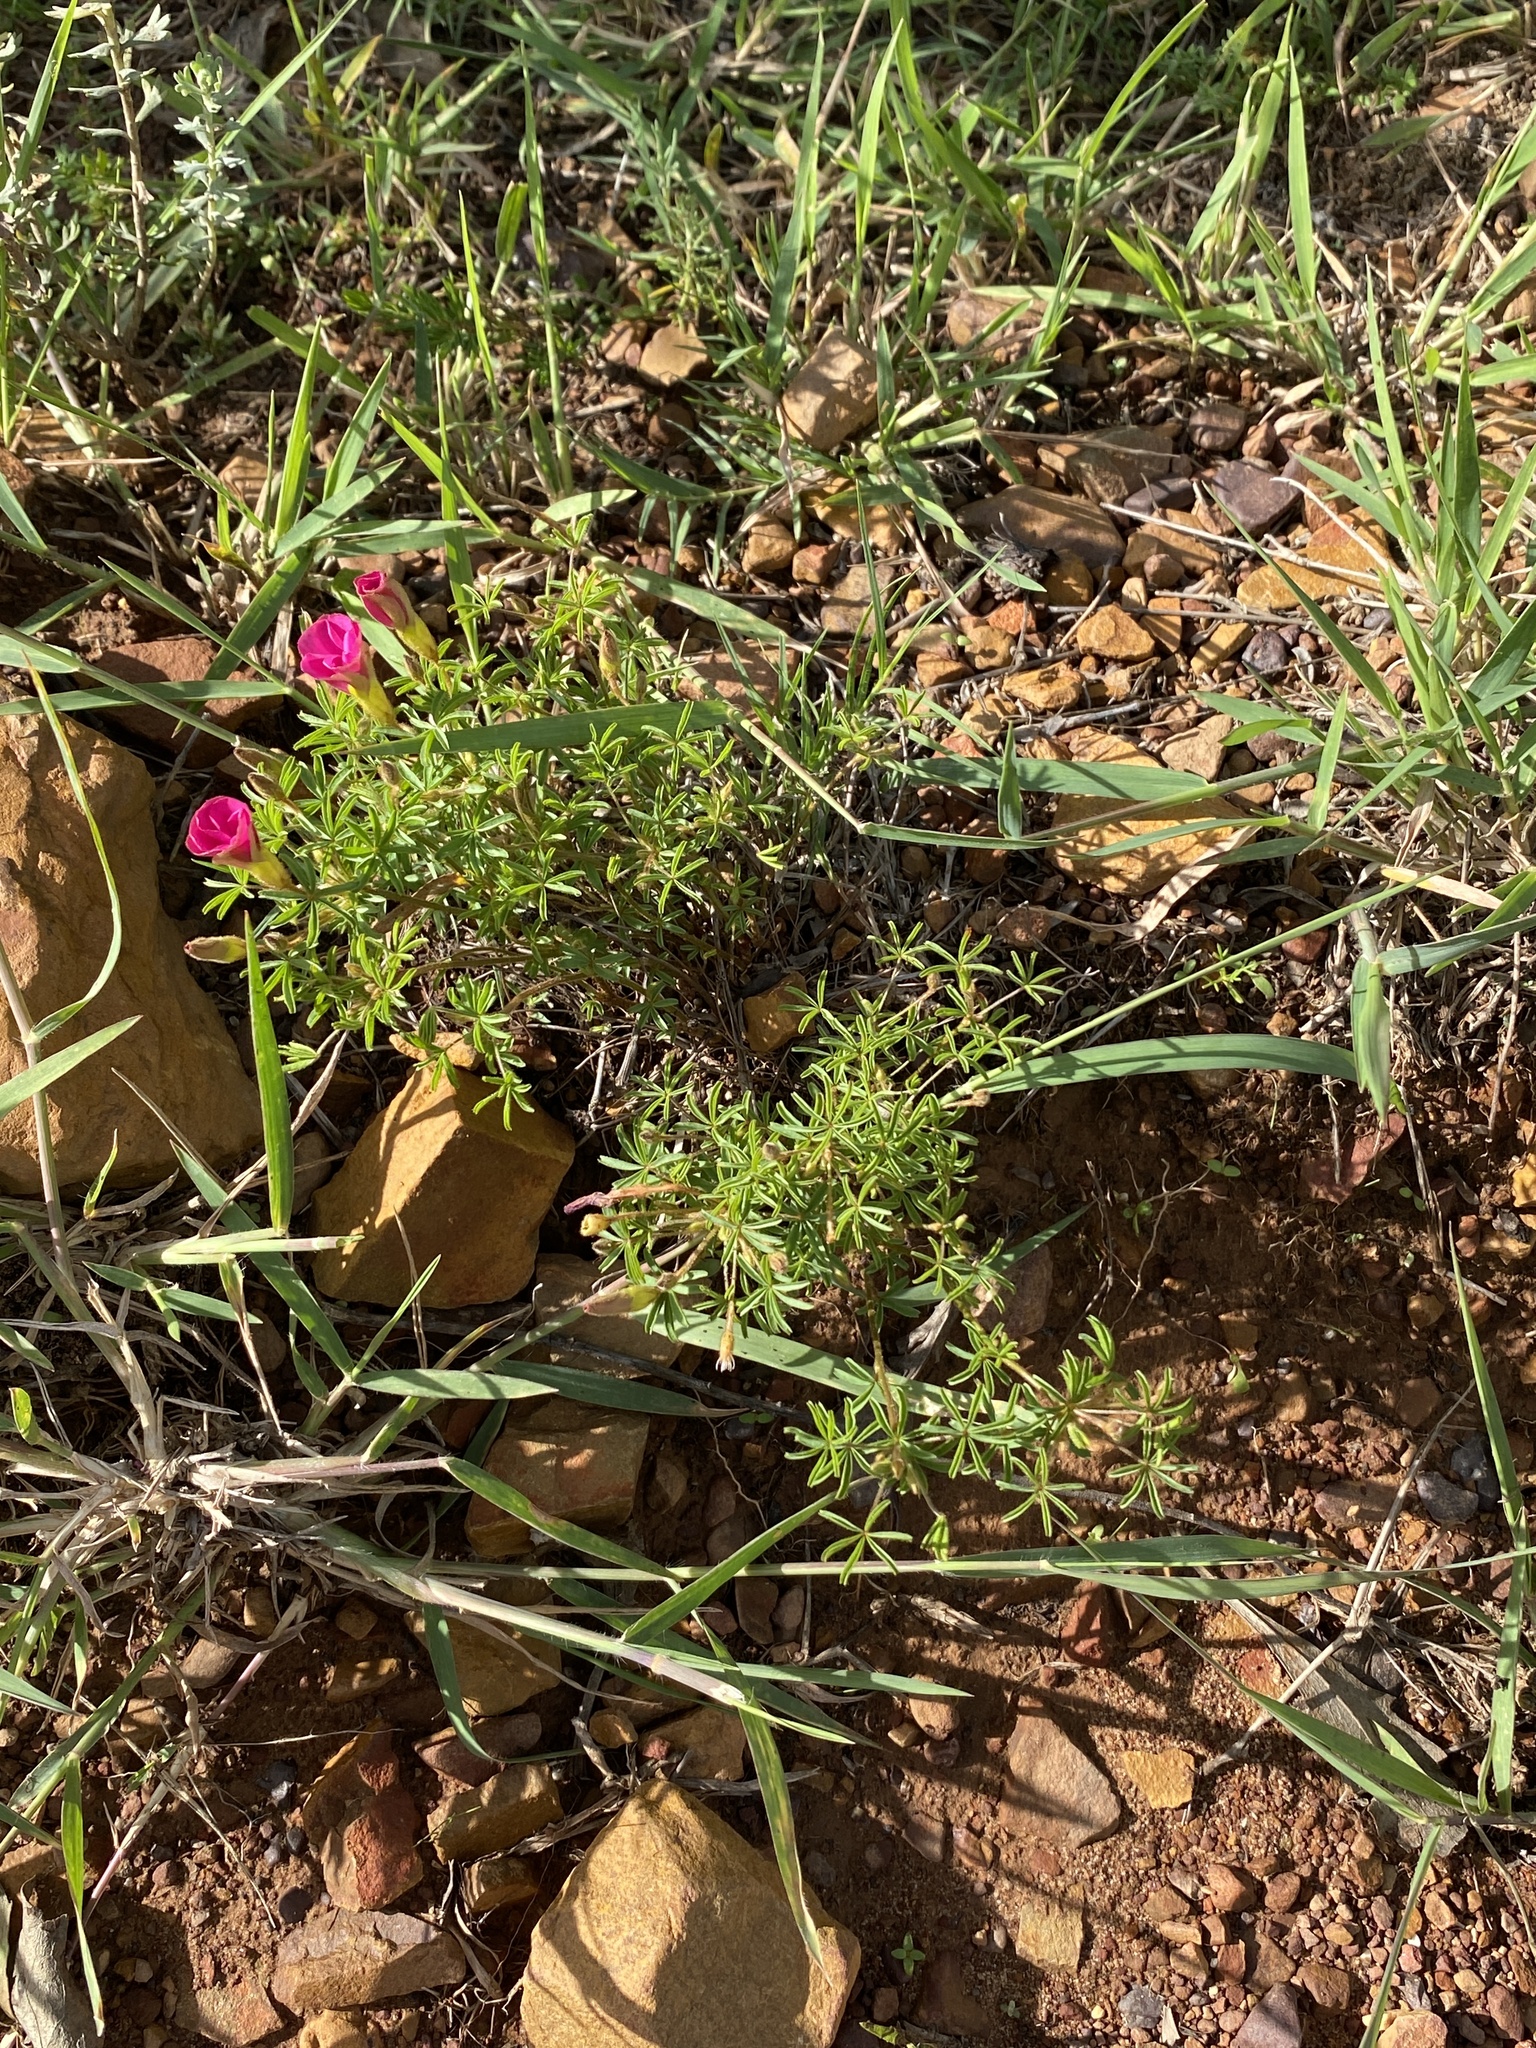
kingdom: Plantae
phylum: Tracheophyta
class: Magnoliopsida
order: Oxalidales
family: Oxalidaceae
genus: Oxalis
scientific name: Oxalis engleriana
